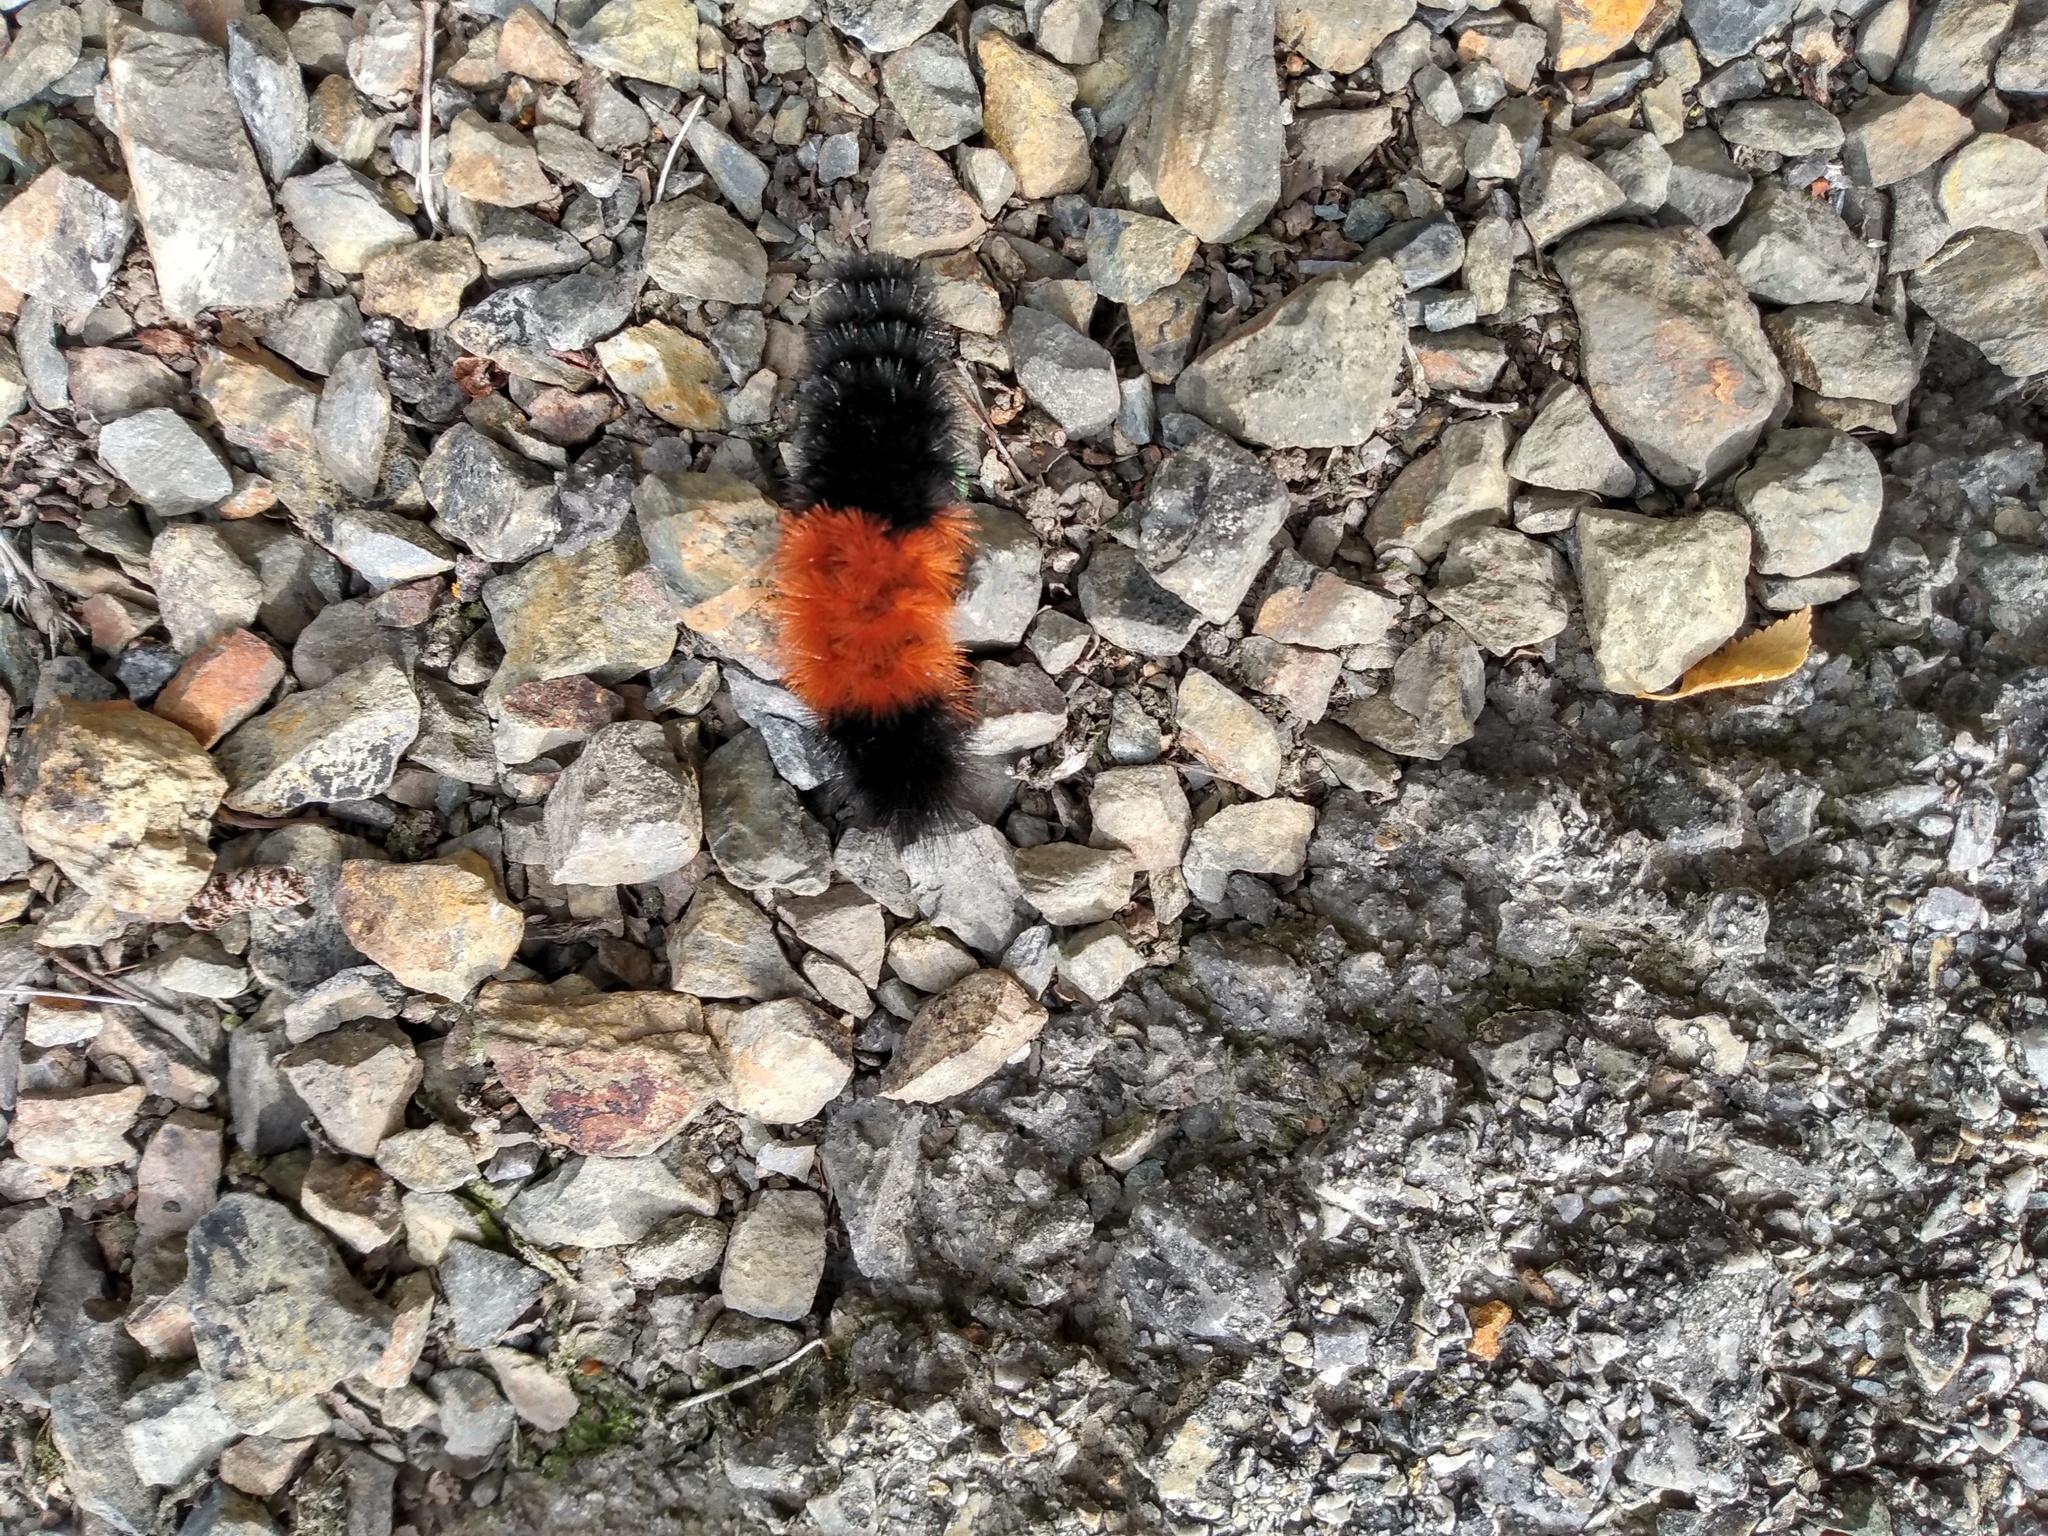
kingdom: Animalia
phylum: Arthropoda
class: Insecta
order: Lepidoptera
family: Erebidae
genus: Pyrrharctia
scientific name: Pyrrharctia isabella
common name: Isabella tiger moth
